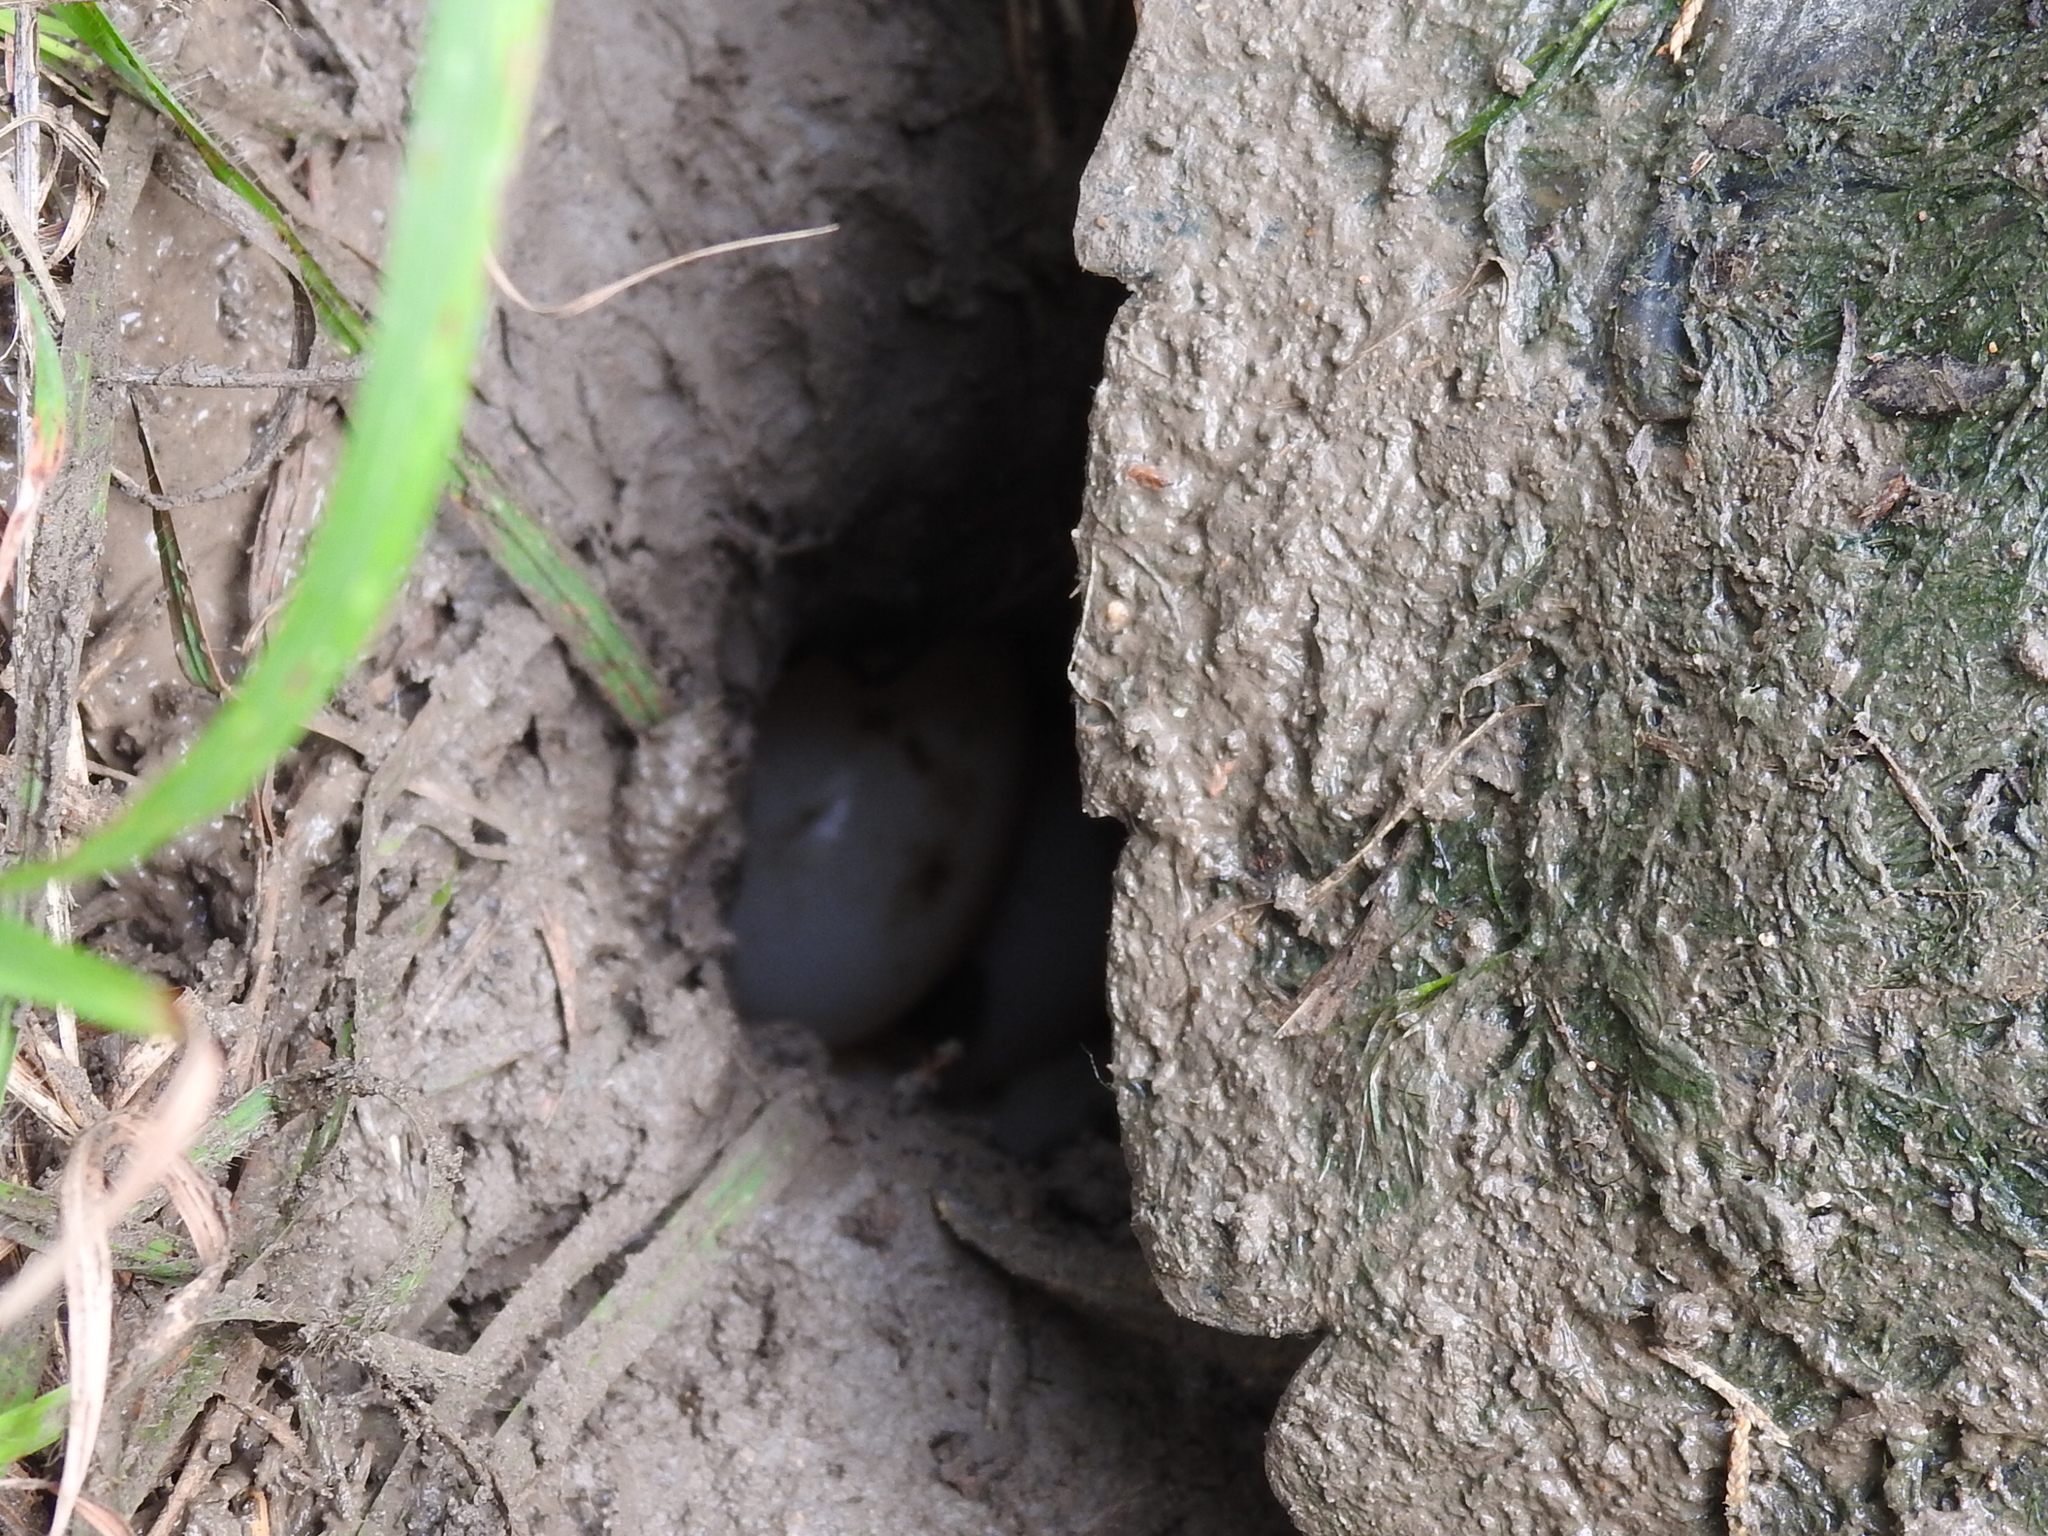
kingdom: Animalia
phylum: Chordata
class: Testudines
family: Emydidae
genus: Trachemys
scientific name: Trachemys scripta
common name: Slider
